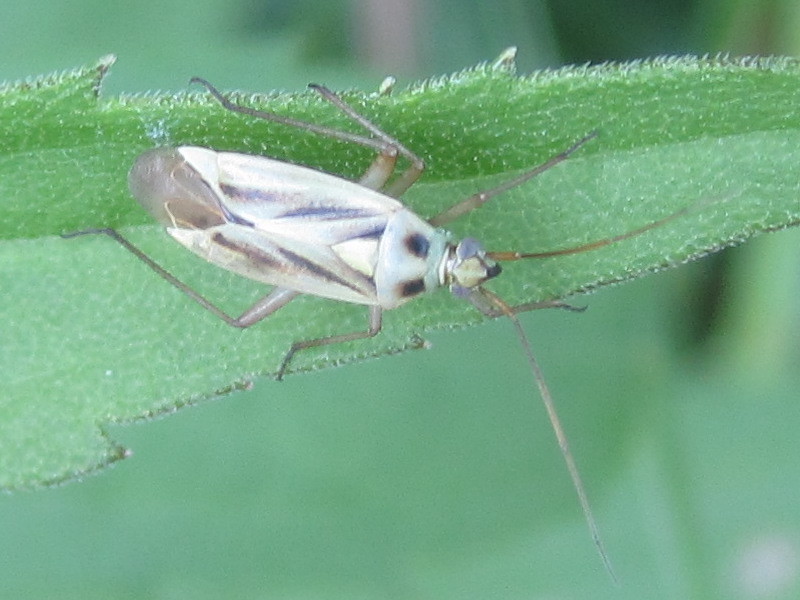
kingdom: Animalia
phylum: Arthropoda
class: Insecta
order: Hemiptera
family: Miridae
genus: Stenotus
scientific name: Stenotus binotatus
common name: Plant bug
